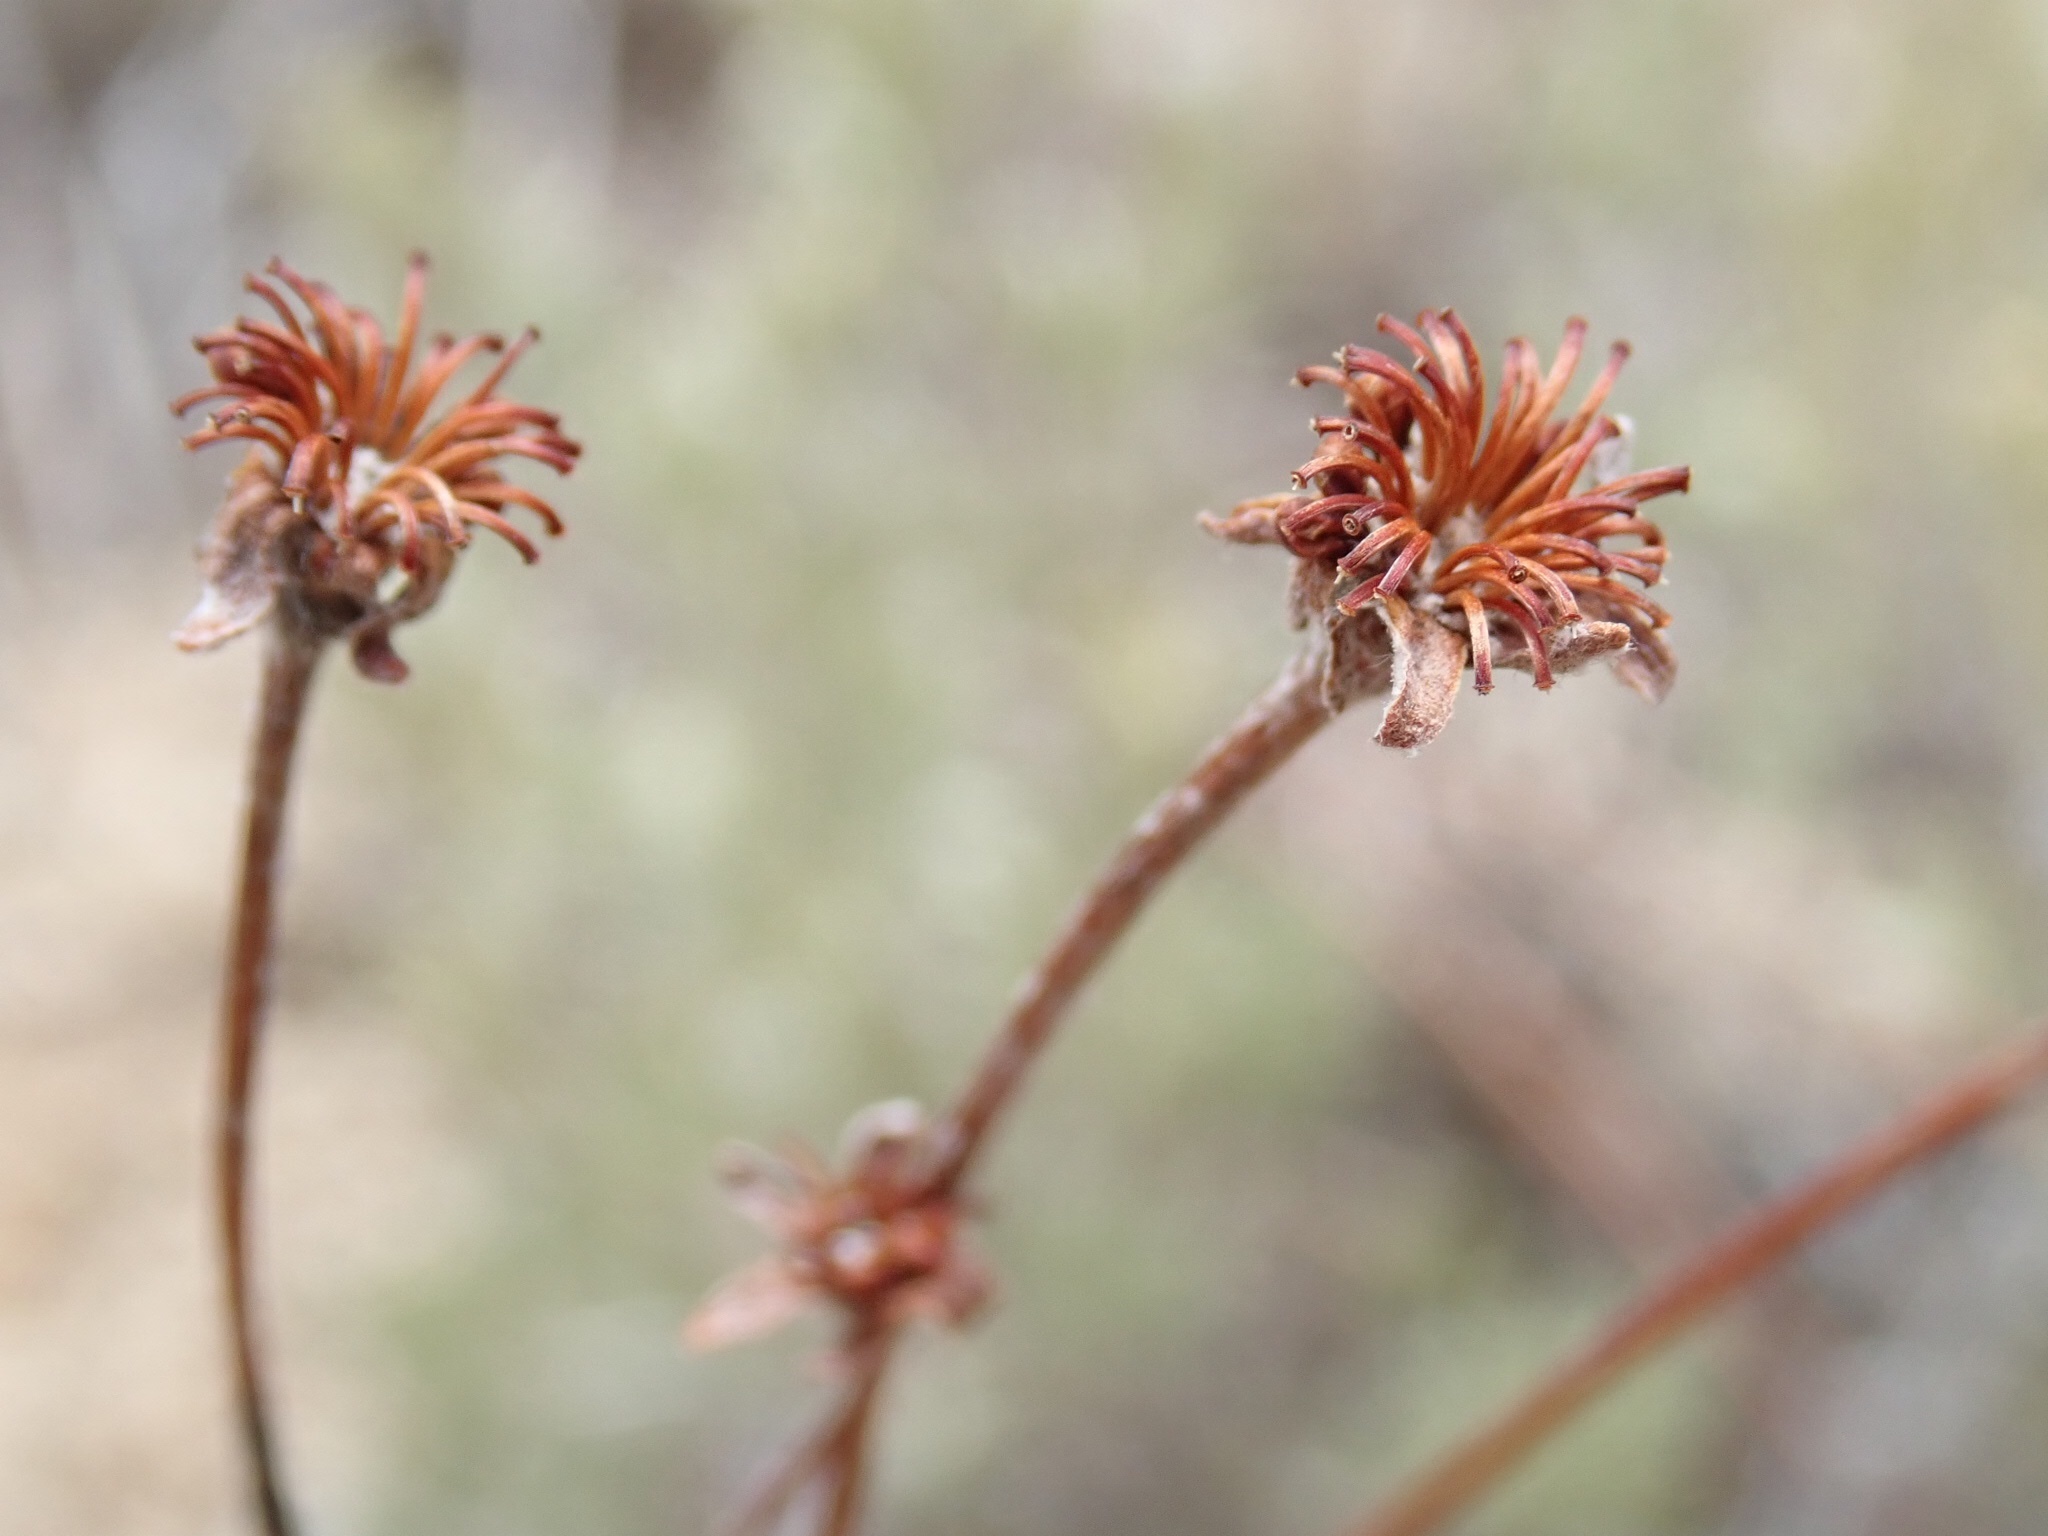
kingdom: Plantae
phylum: Tracheophyta
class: Magnoliopsida
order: Caryophyllales
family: Polygonaceae
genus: Eriogonum
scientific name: Eriogonum umbellatum
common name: Sulfur-buckwheat
